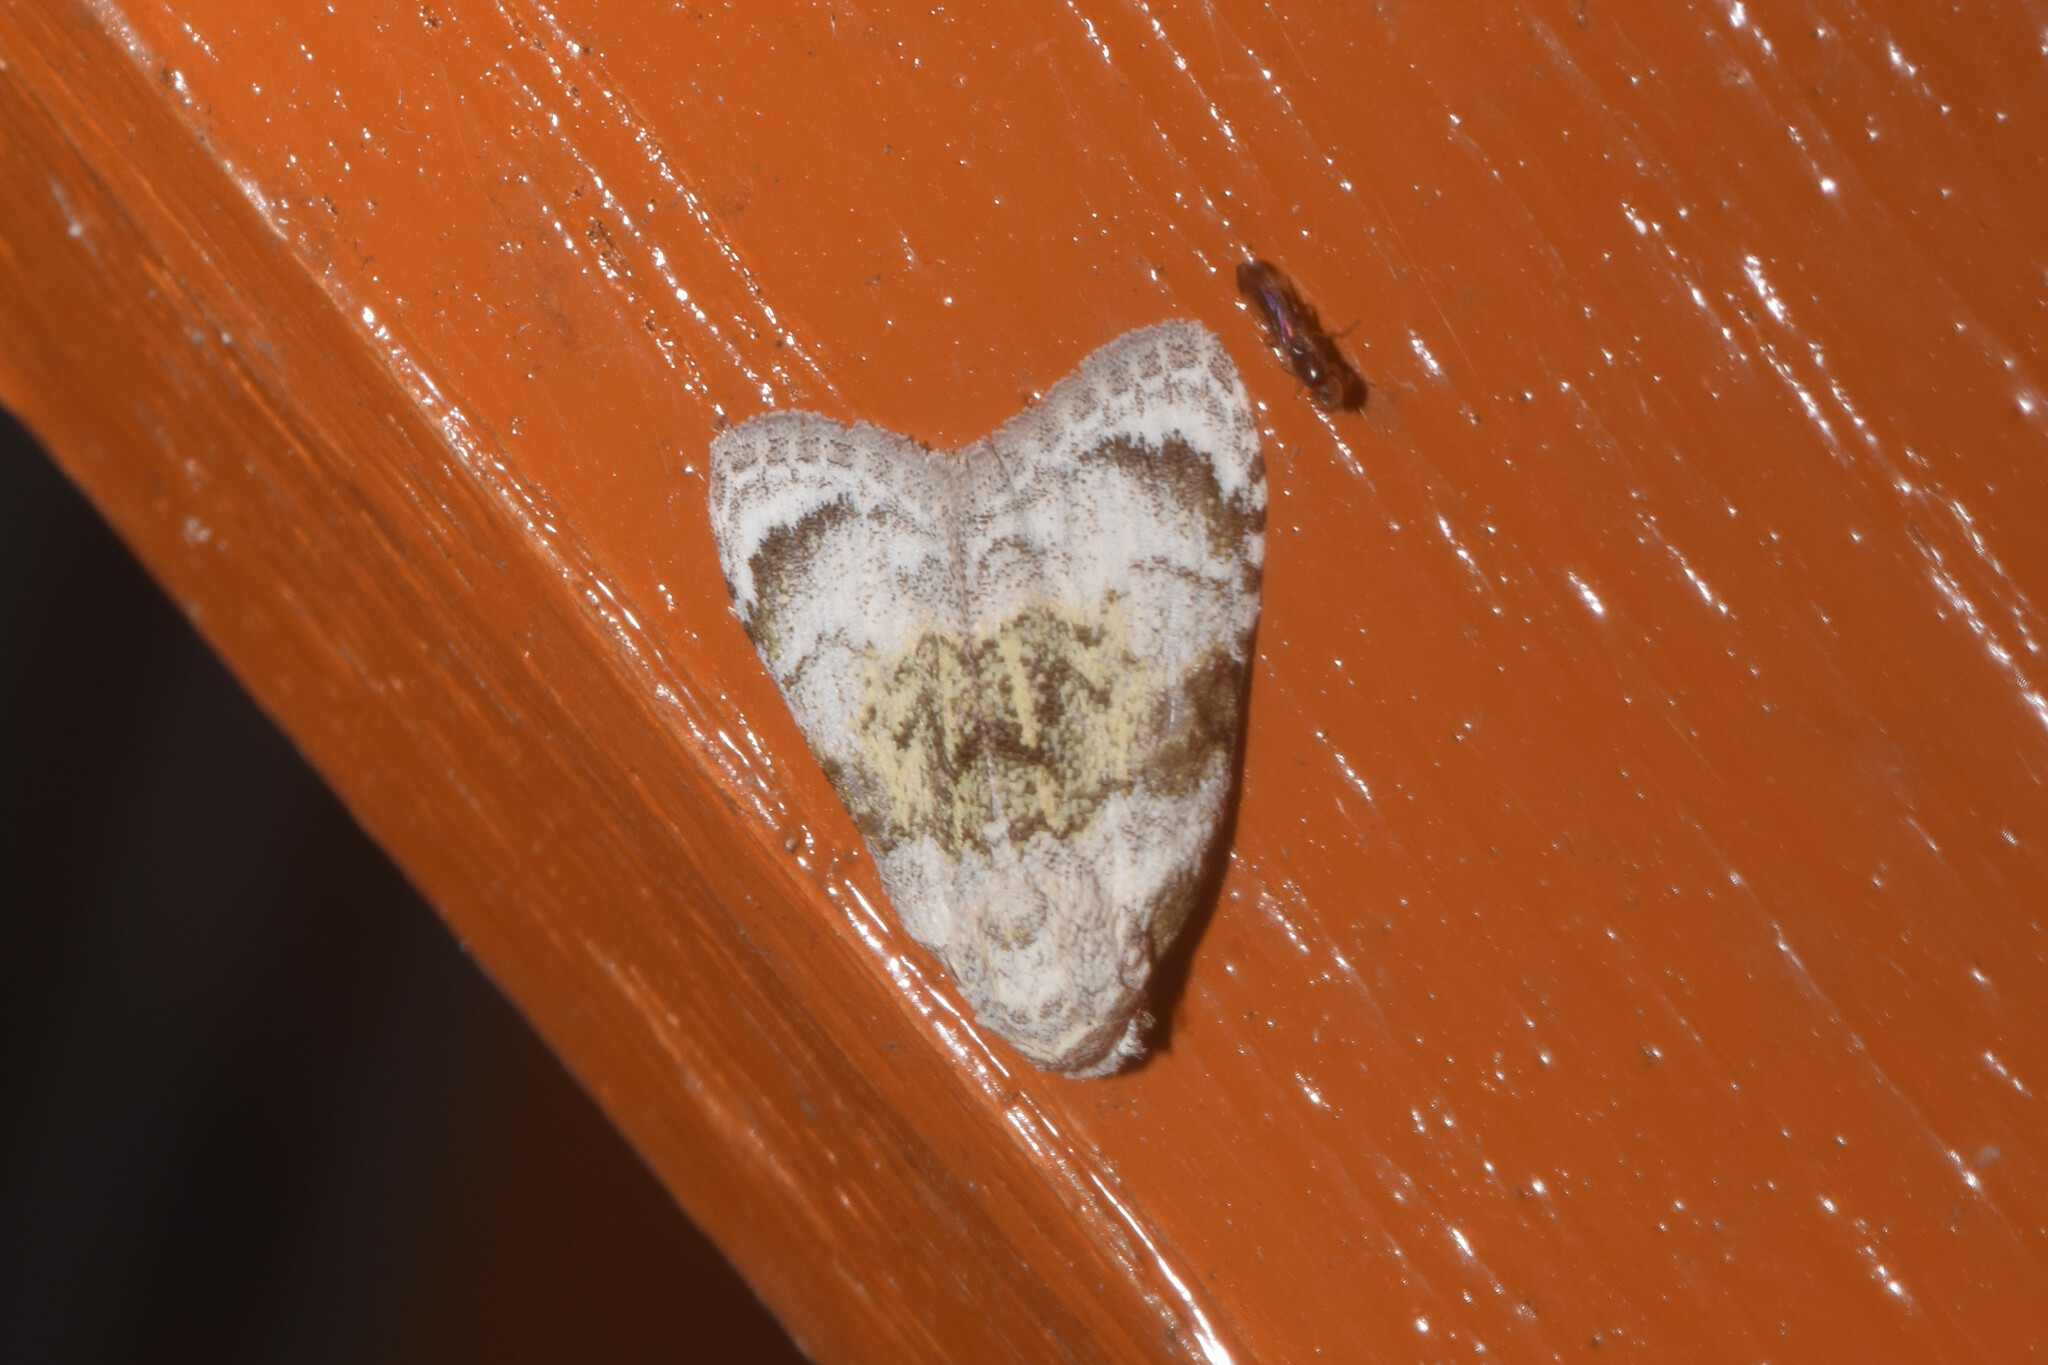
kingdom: Animalia
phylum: Arthropoda
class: Insecta
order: Lepidoptera
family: Nolidae
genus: Suerkenola
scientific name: Suerkenola longiventris
